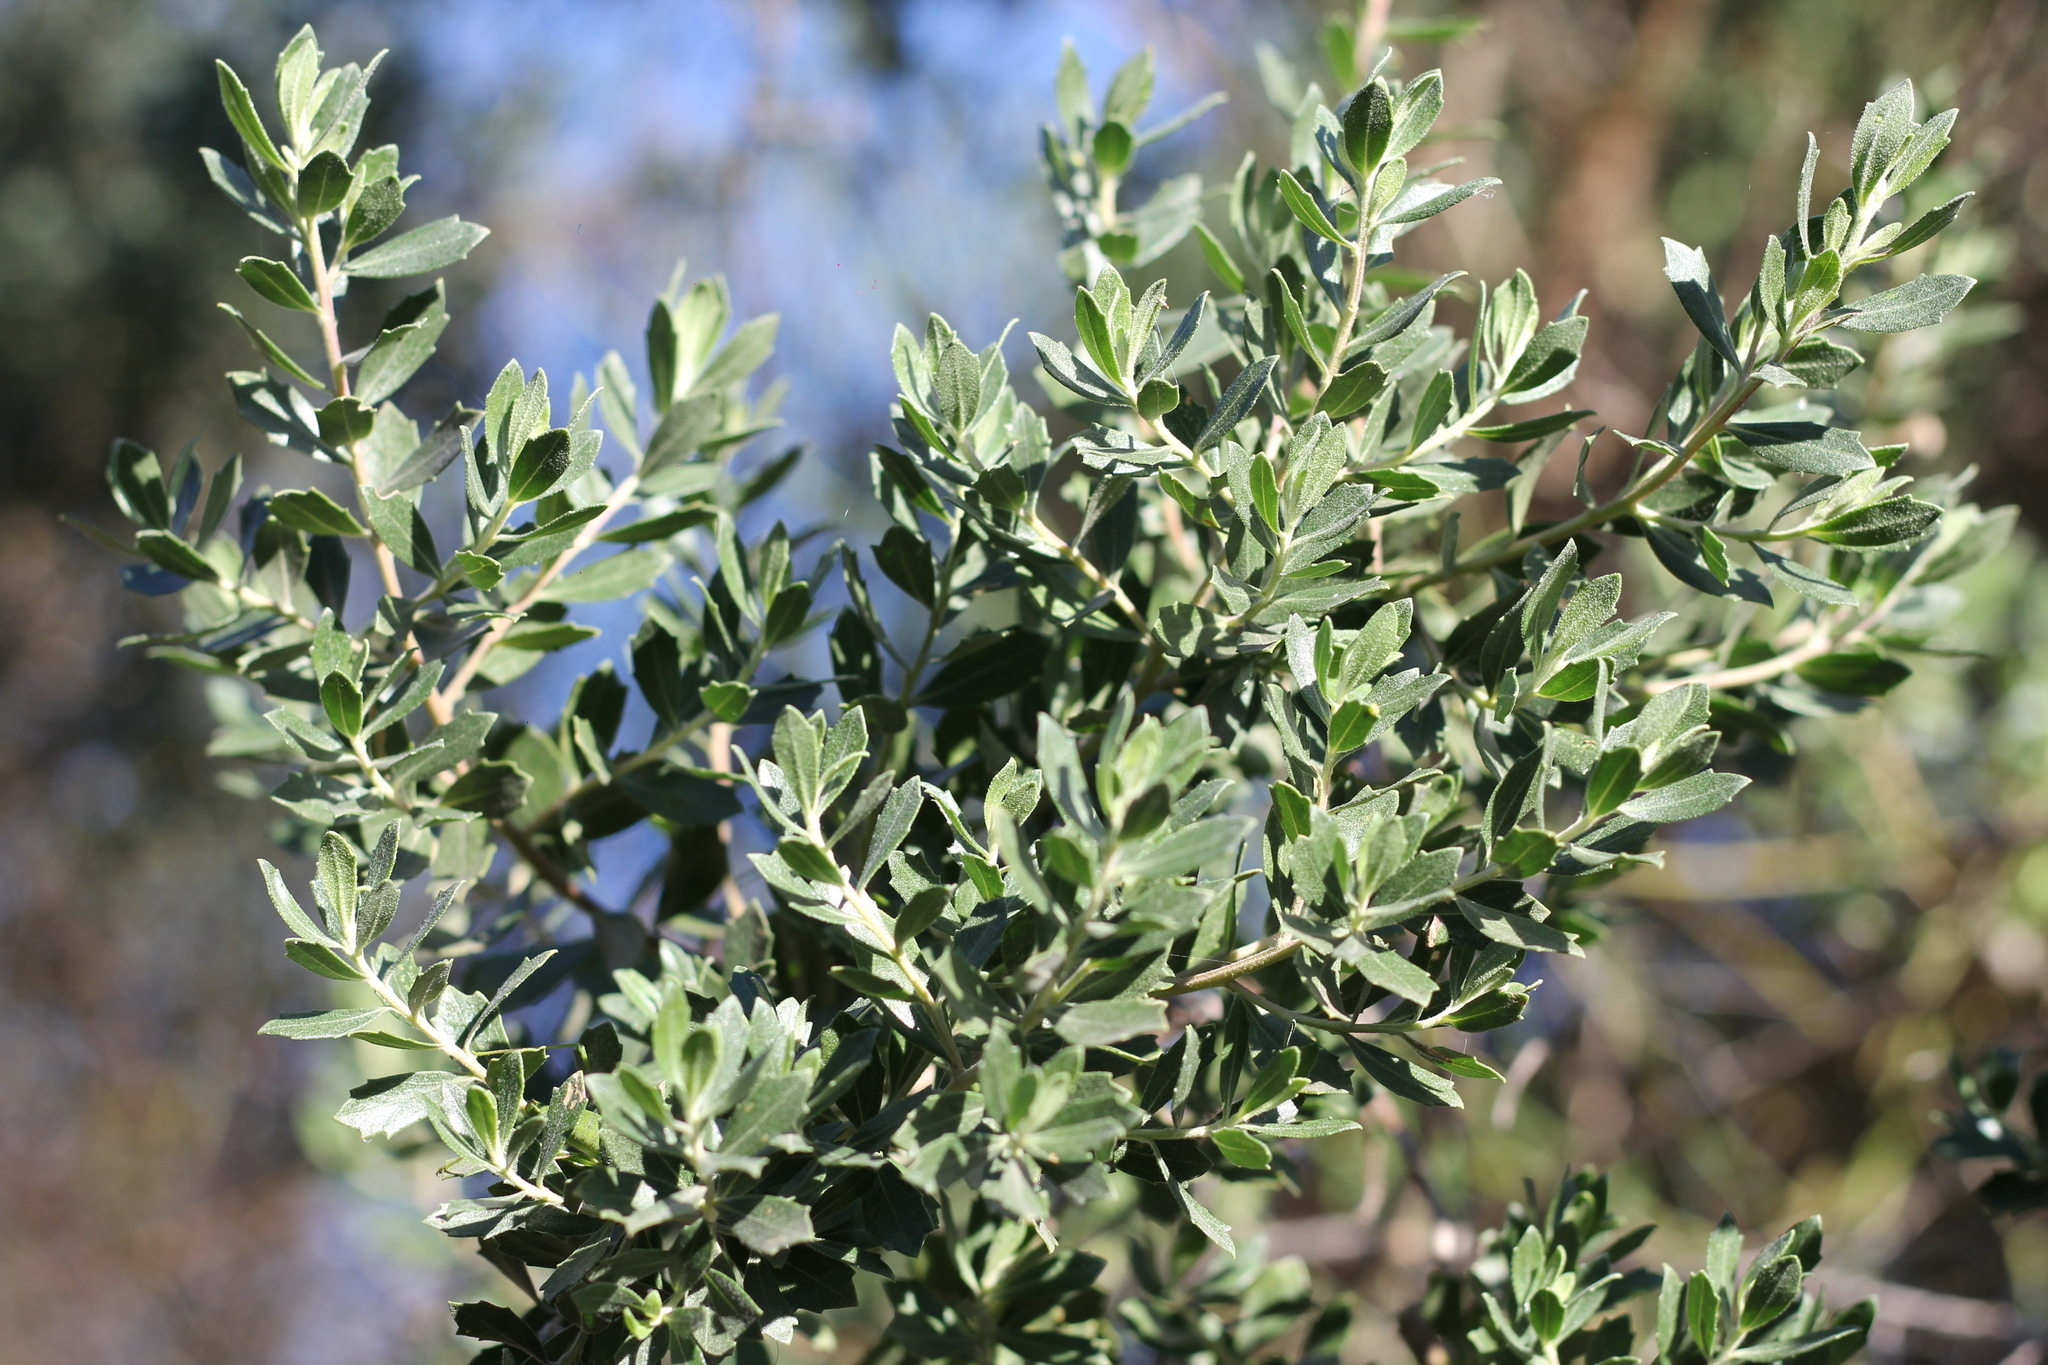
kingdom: Plantae
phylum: Tracheophyta
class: Magnoliopsida
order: Asterales
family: Asteraceae
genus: Baccharis
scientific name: Baccharis dracunculifolia
